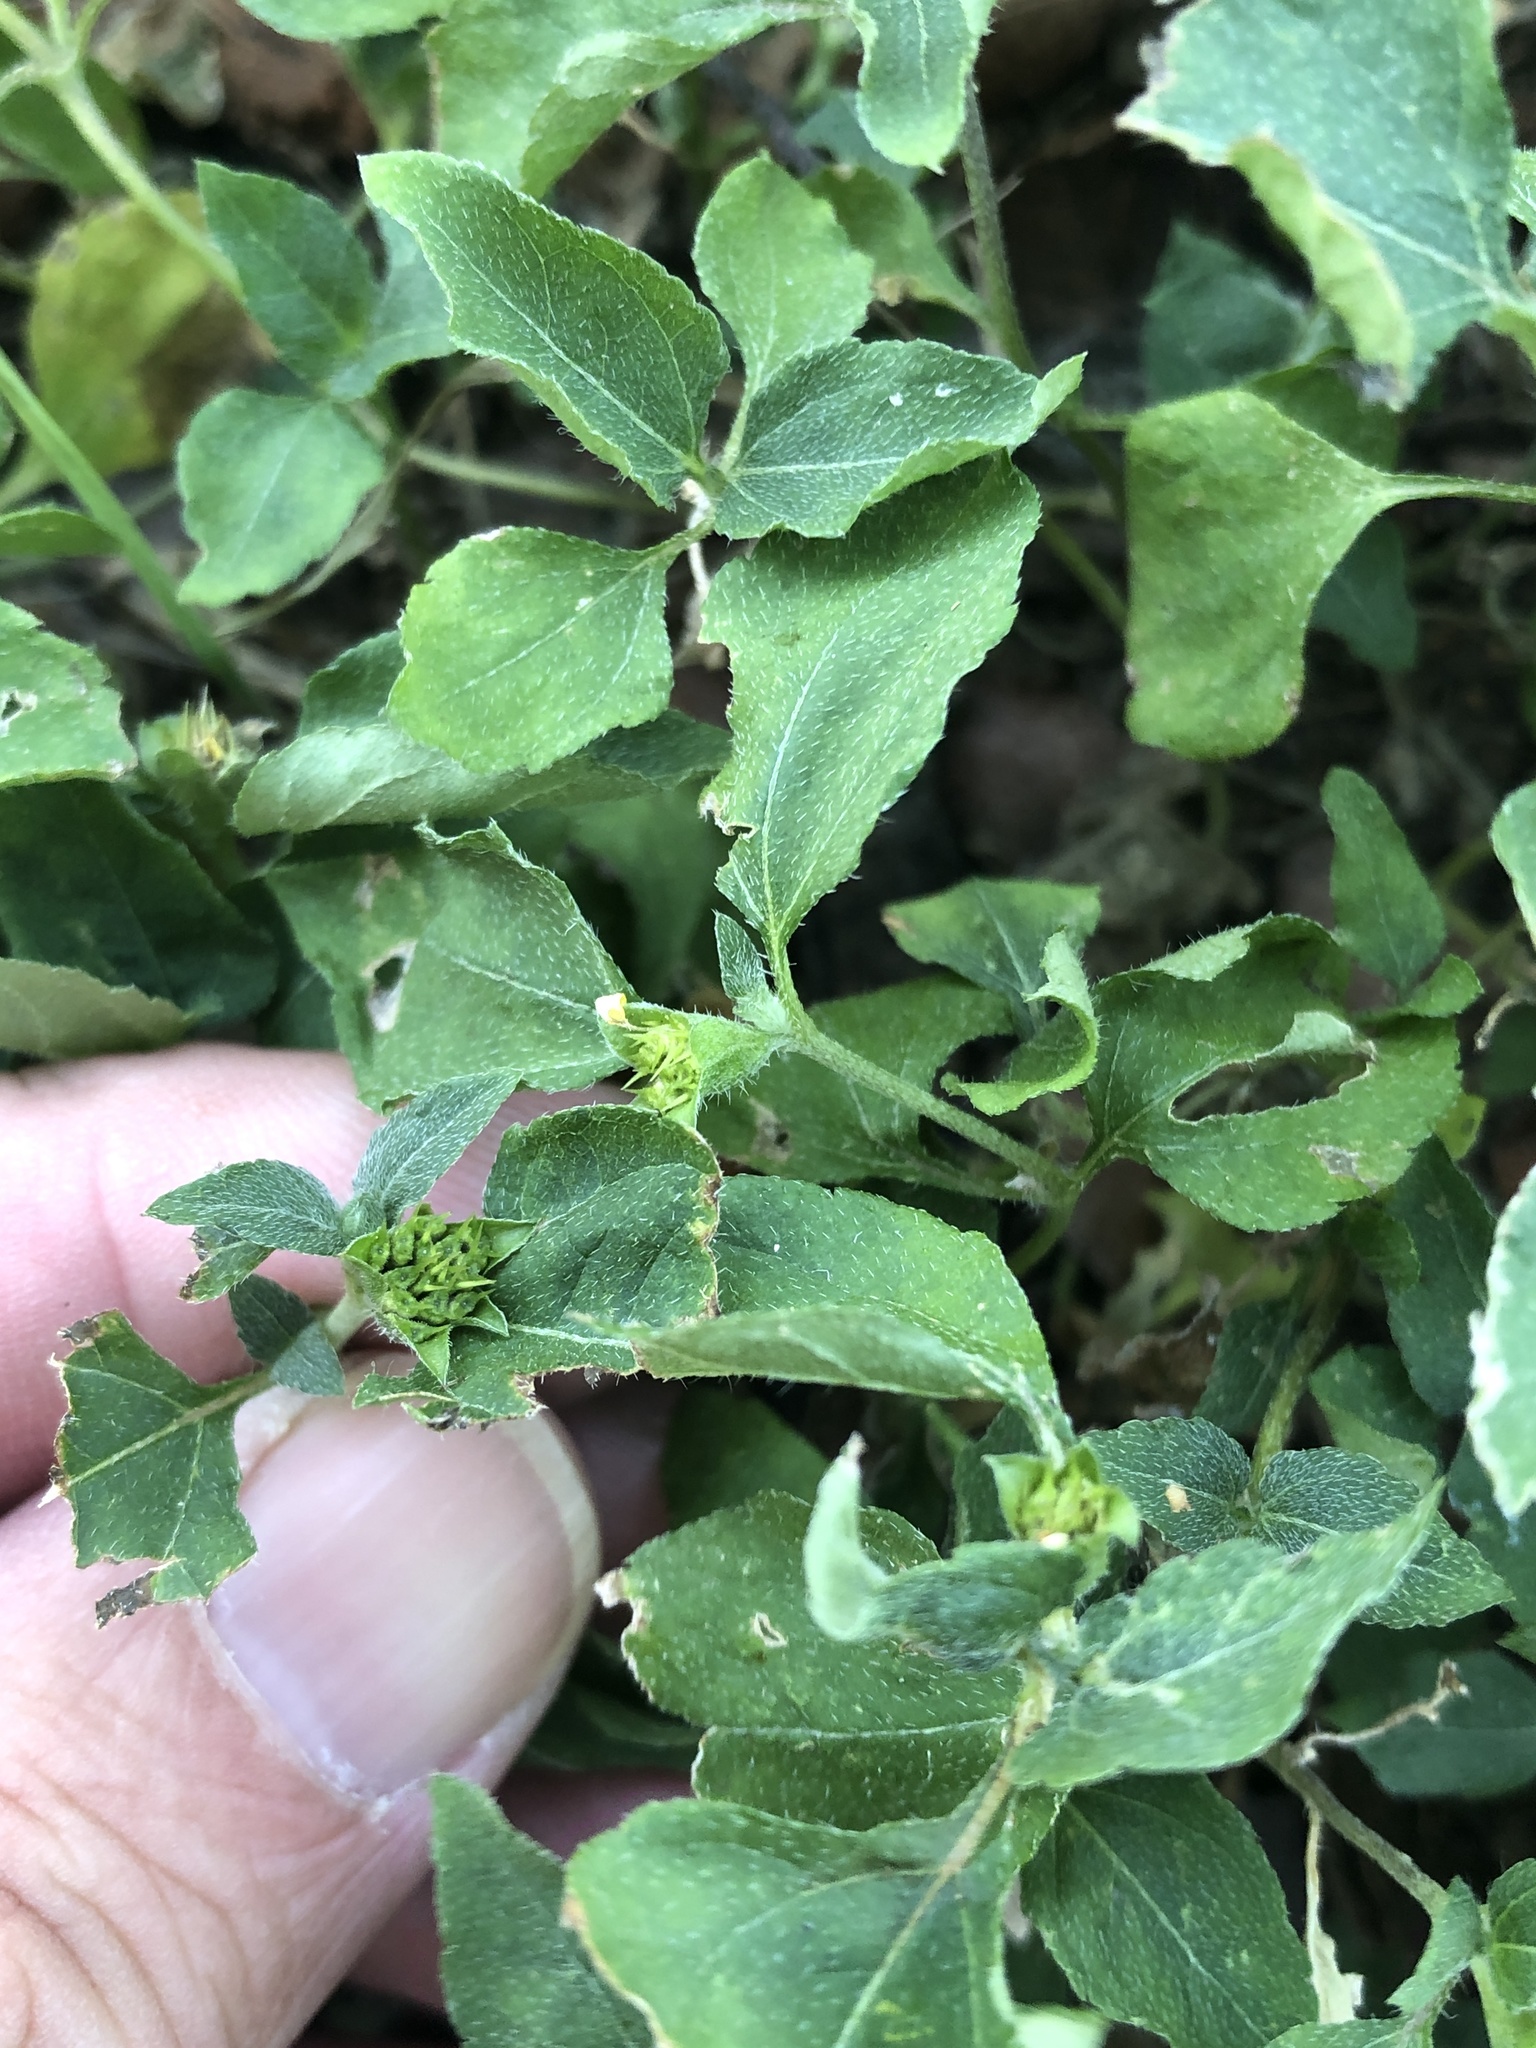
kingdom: Plantae
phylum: Tracheophyta
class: Magnoliopsida
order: Asterales
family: Asteraceae
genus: Calyptocarpus
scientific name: Calyptocarpus vialis
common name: Straggler daisy
